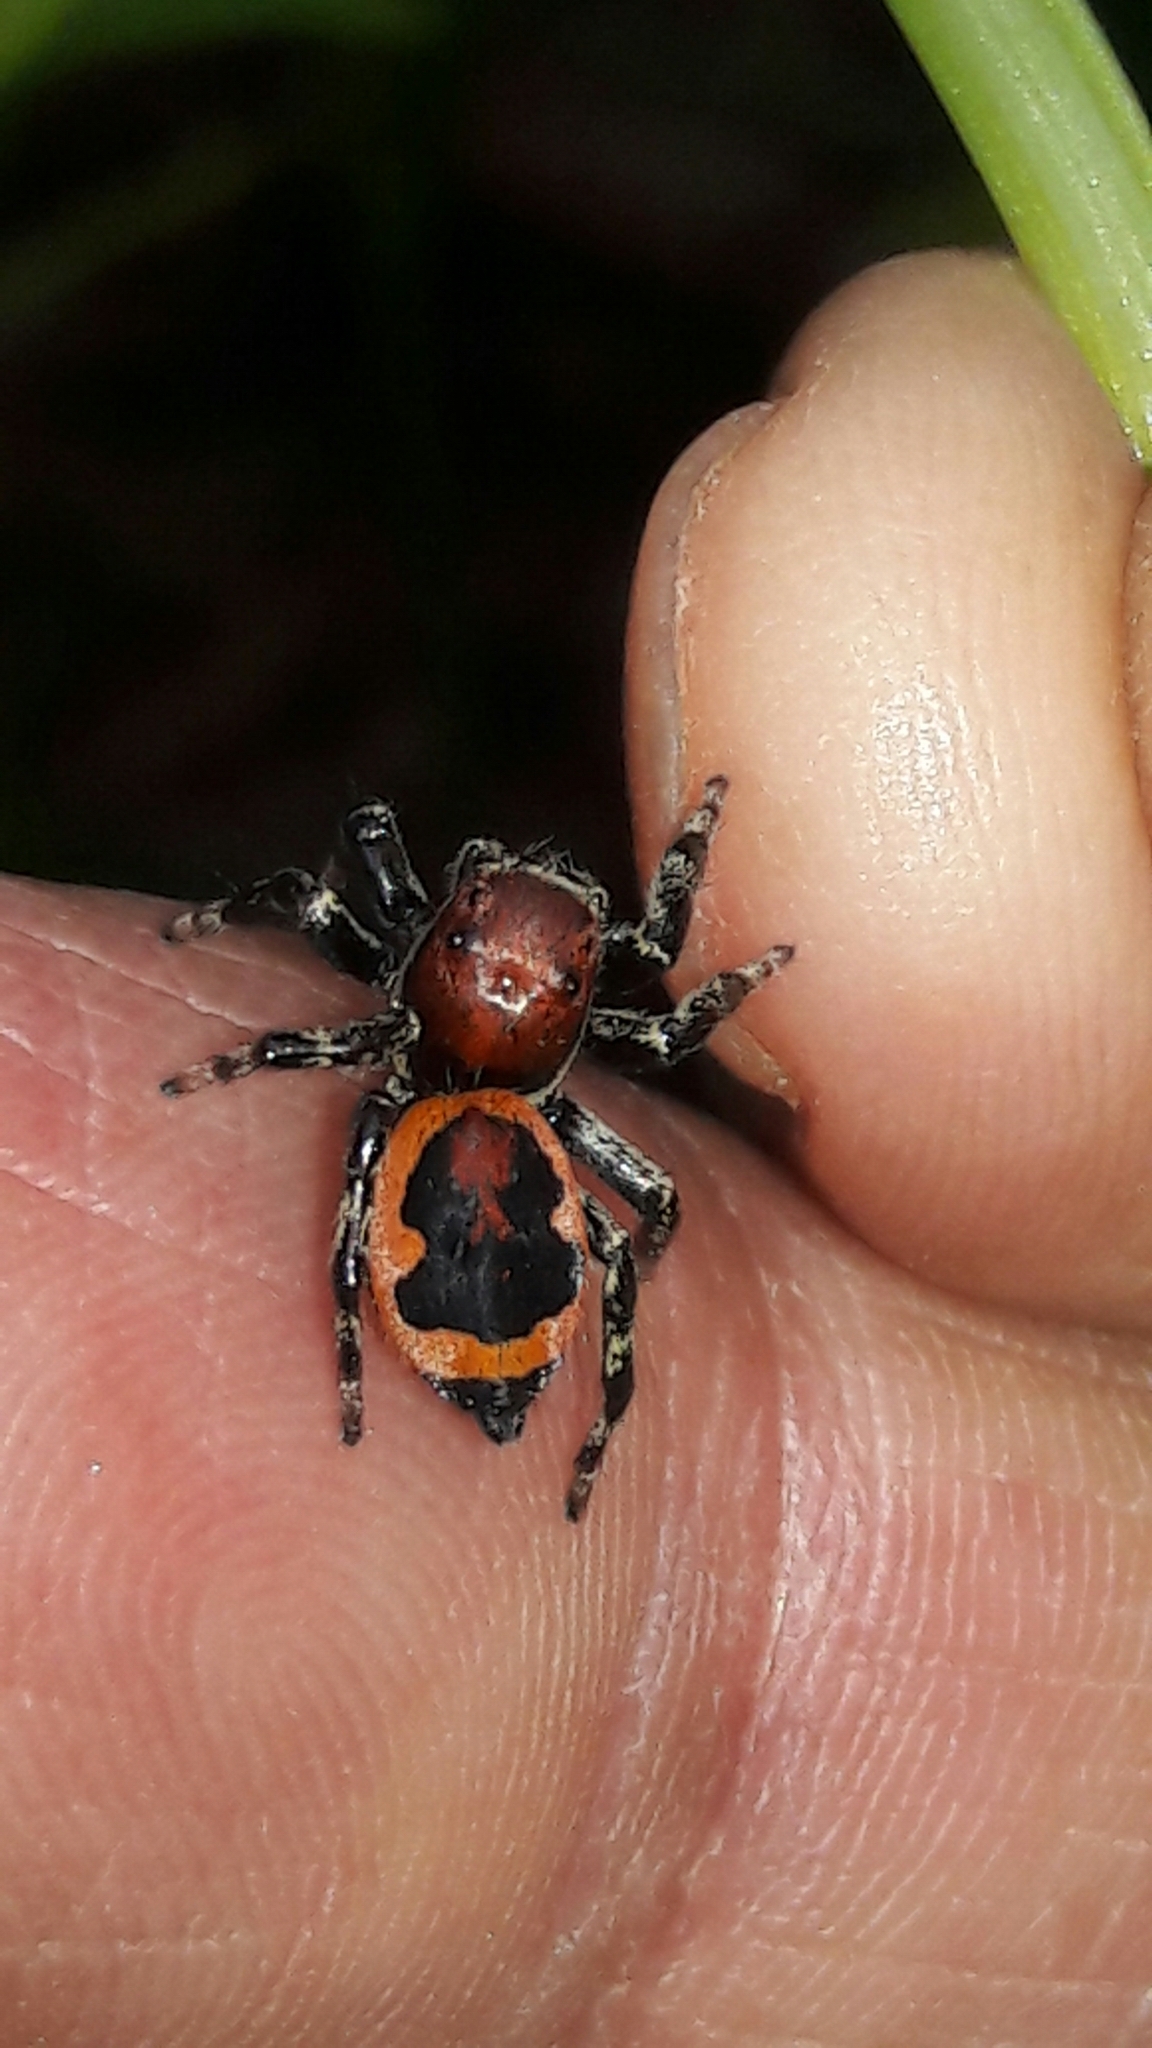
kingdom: Animalia
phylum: Arthropoda
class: Arachnida
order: Araneae
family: Salticidae
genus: Phiale
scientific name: Phiale mimica
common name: Jumping spiders
